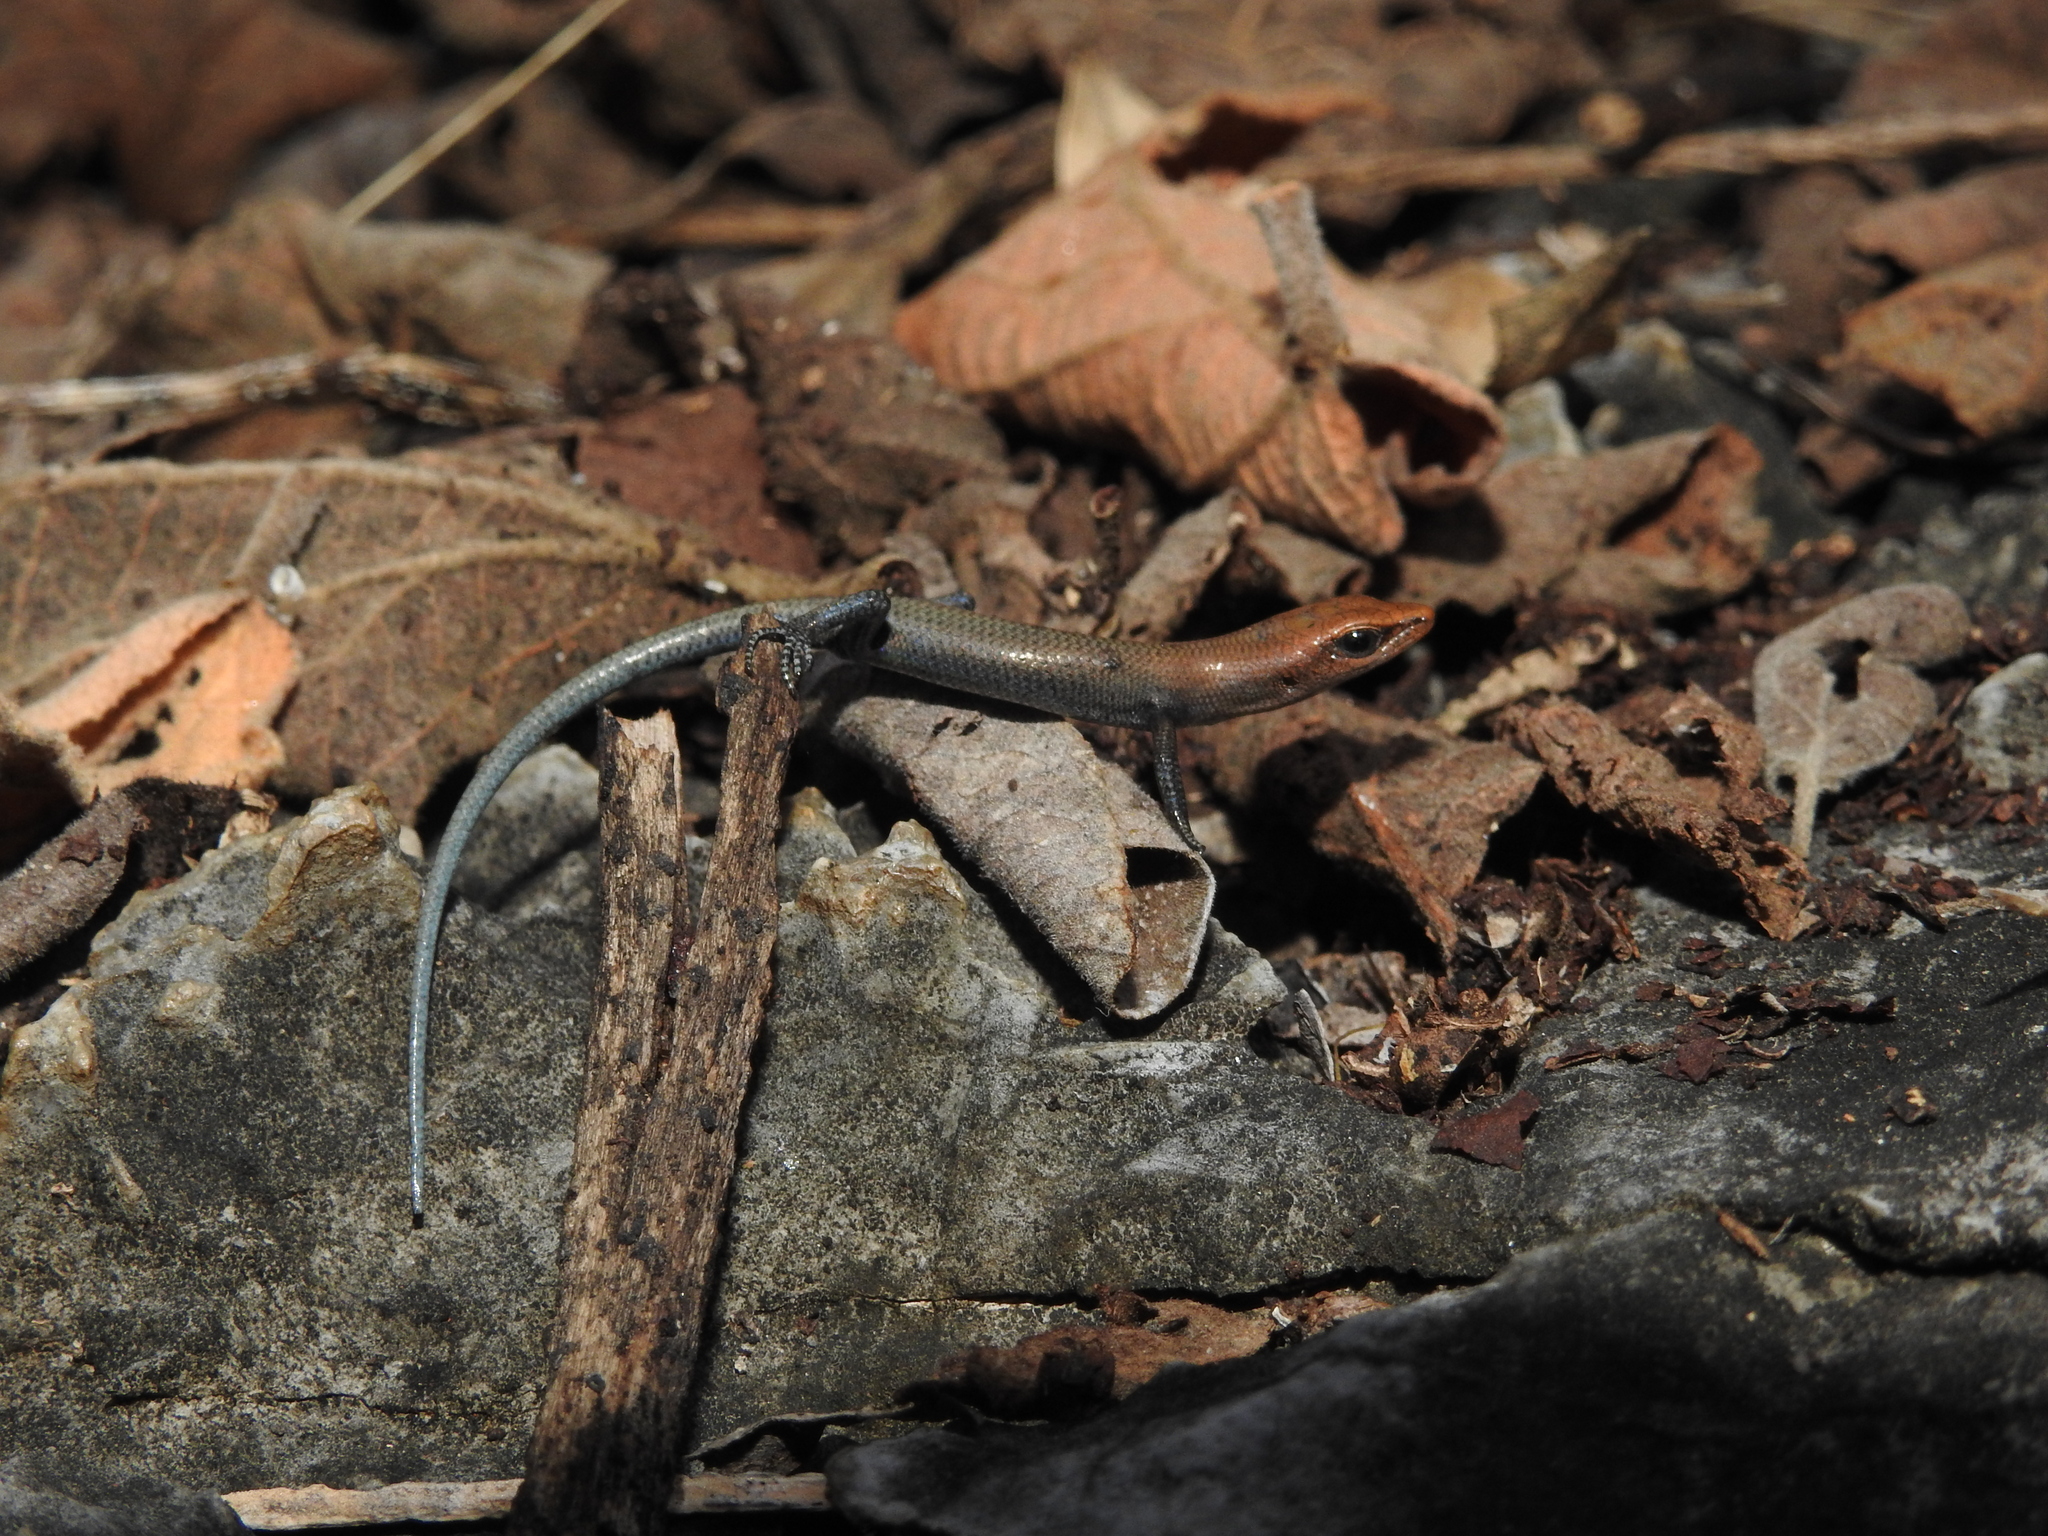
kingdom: Animalia
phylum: Chordata
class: Squamata
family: Scincidae
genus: Lygisaurus
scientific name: Lygisaurus rococo
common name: Chillagoe litter-skink
